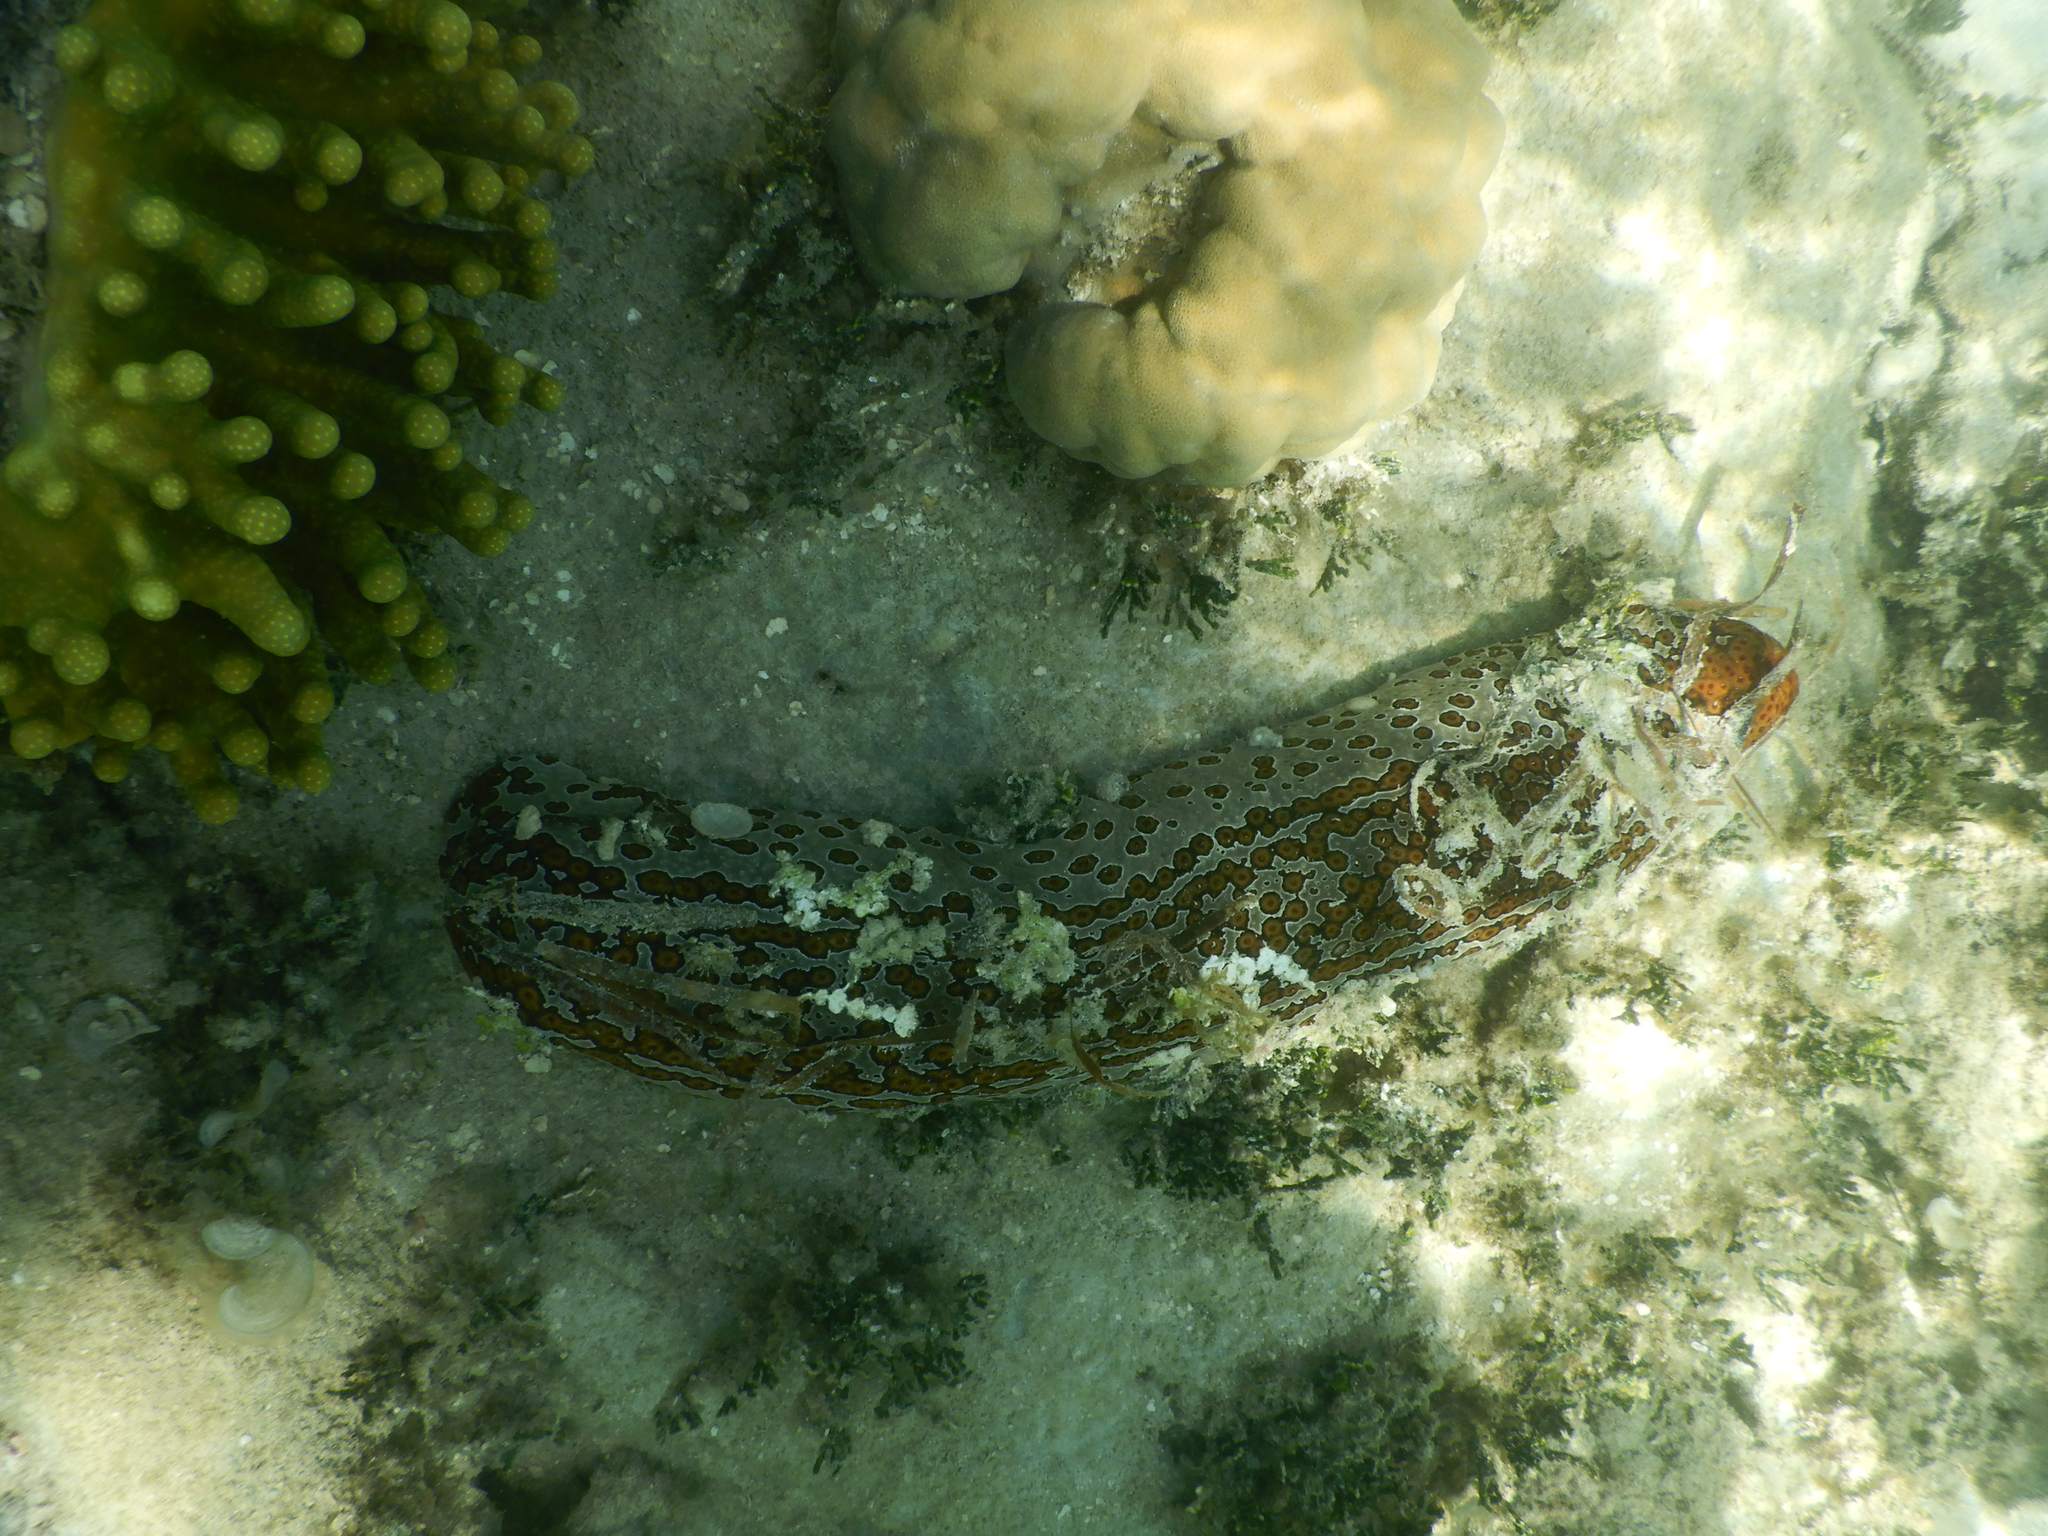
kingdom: Animalia
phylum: Echinodermata
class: Holothuroidea
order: Holothuriida
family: Holothuriidae
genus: Bohadschia
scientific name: Bohadschia argus
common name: Leopardfish
